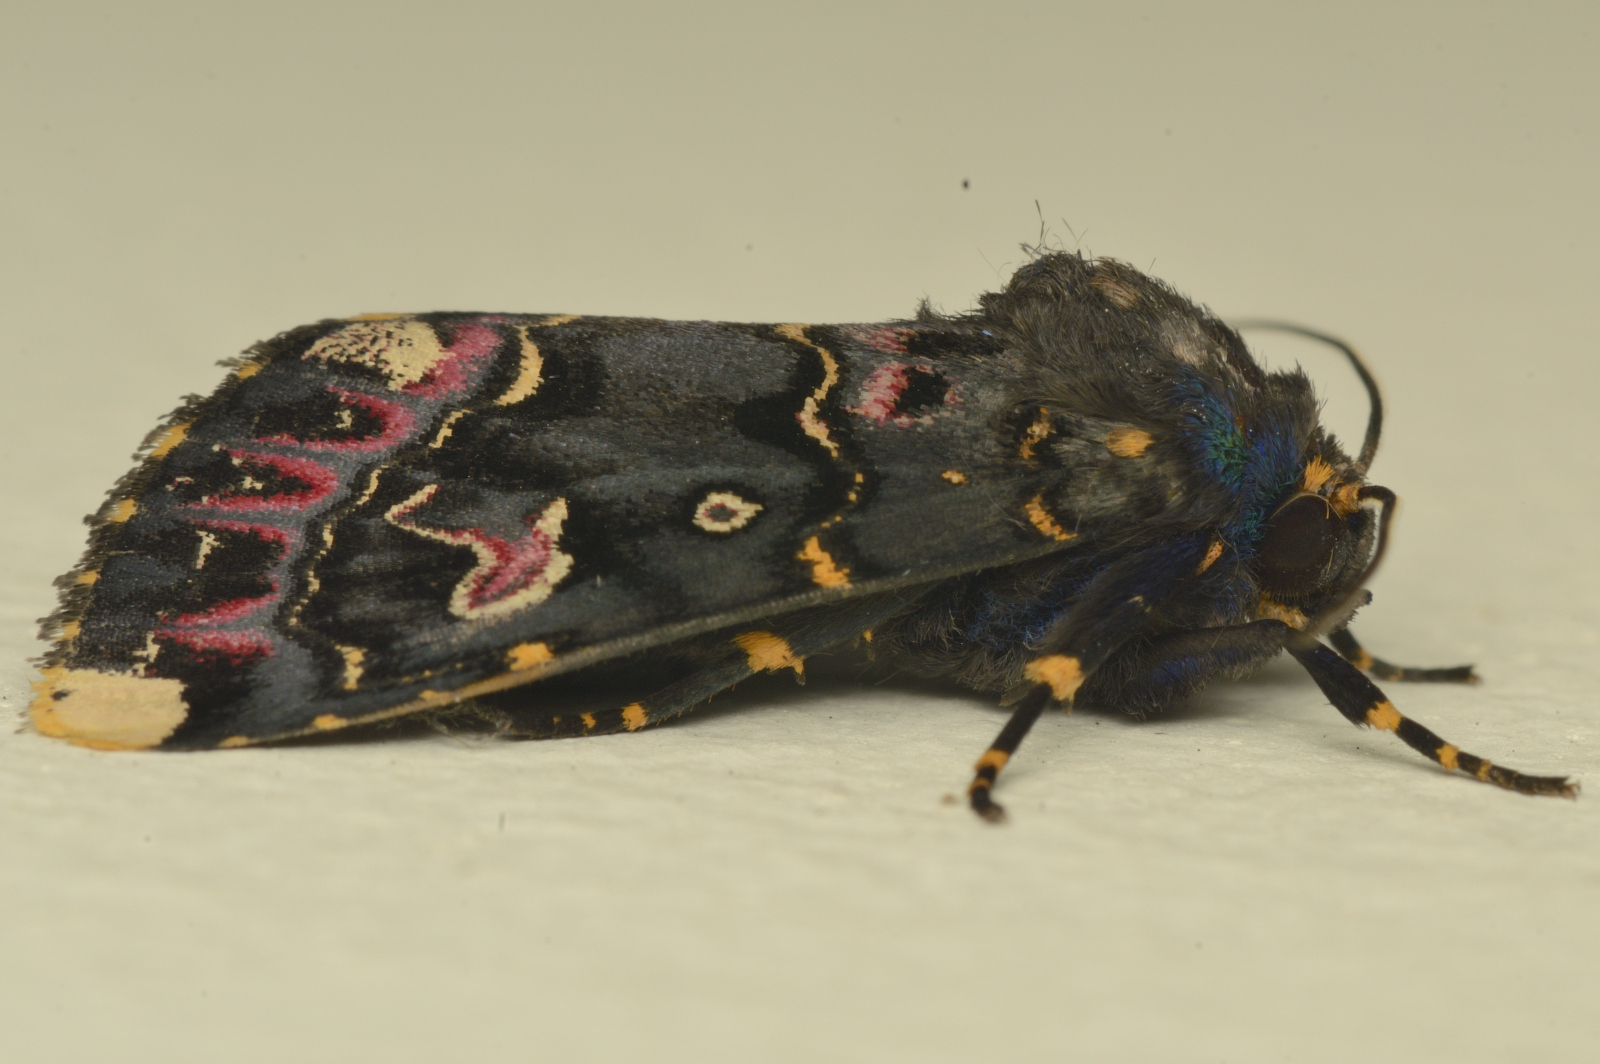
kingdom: Animalia
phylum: Arthropoda
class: Insecta
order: Lepidoptera
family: Noctuidae
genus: Polytela
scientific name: Polytela gloriosae
